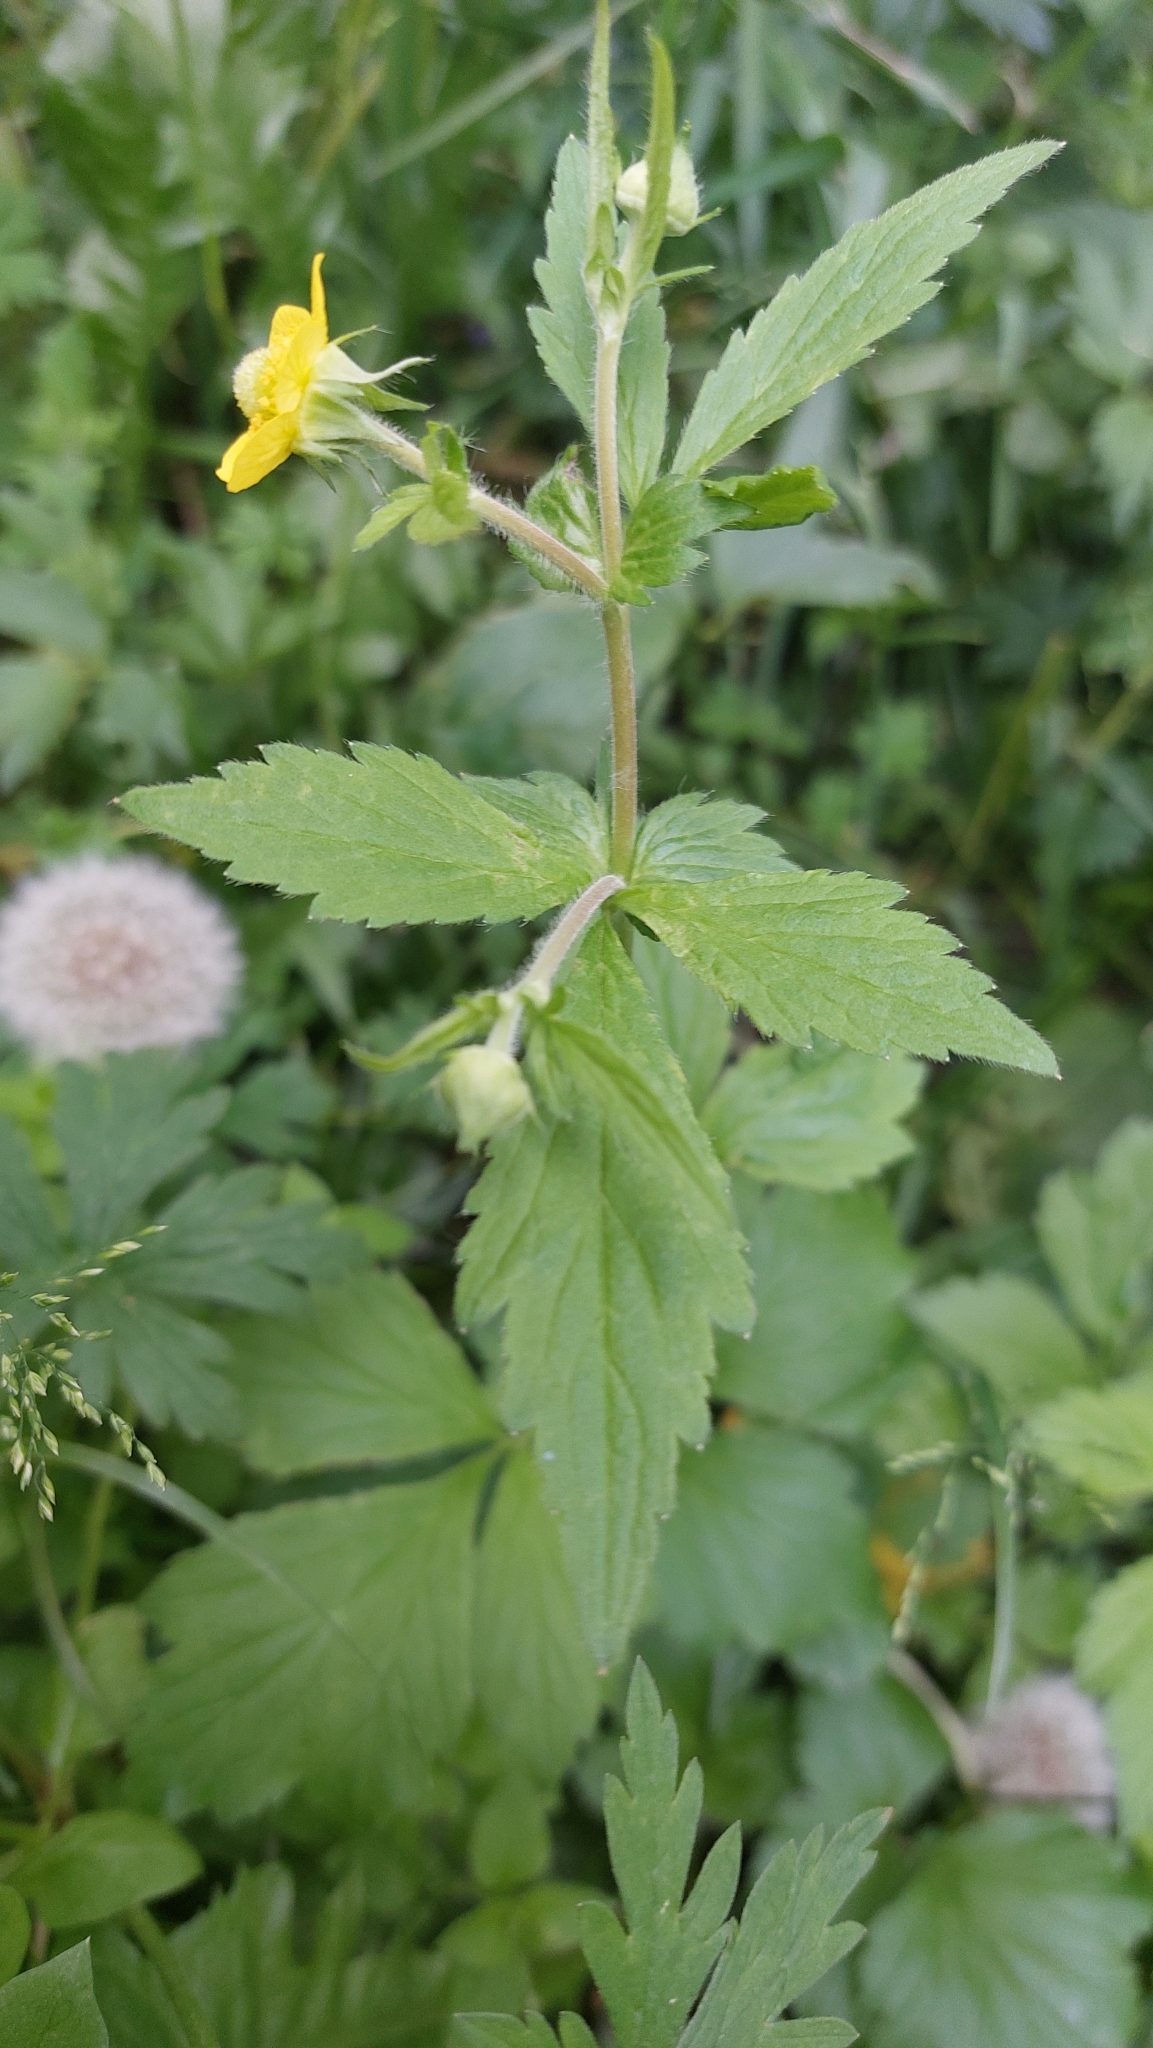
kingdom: Plantae
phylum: Tracheophyta
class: Magnoliopsida
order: Rosales
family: Rosaceae
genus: Geum
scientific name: Geum aleppicum
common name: Yellow avens
